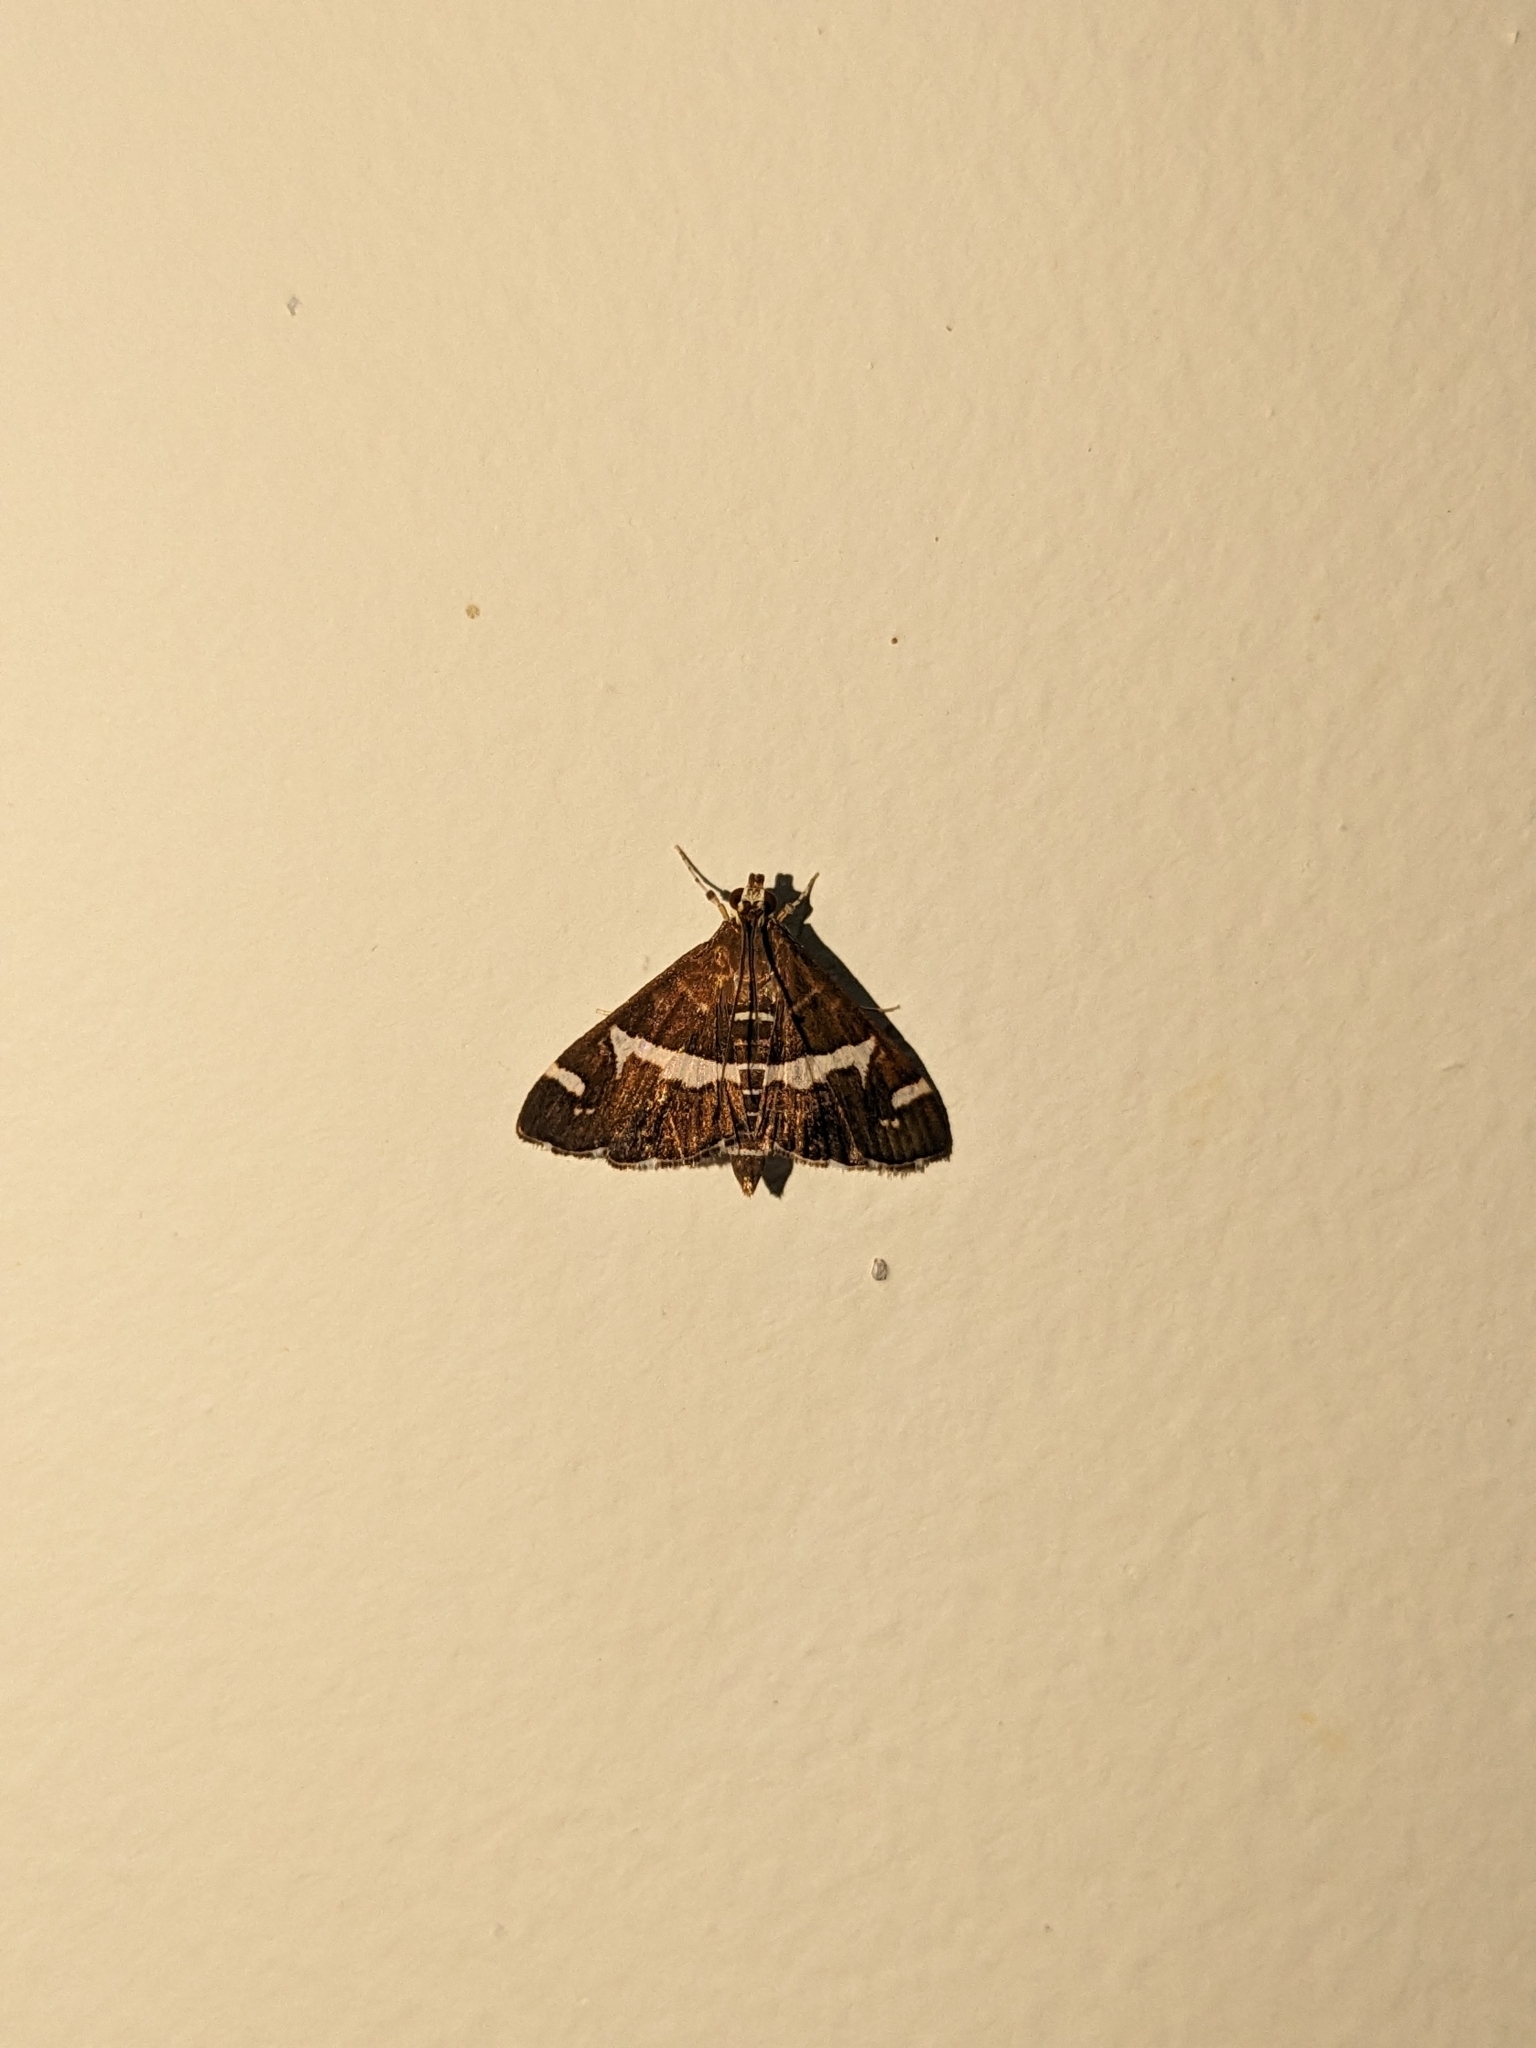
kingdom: Animalia
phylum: Arthropoda
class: Insecta
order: Lepidoptera
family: Crambidae
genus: Spoladea
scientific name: Spoladea recurvalis
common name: Beet webworm moth
